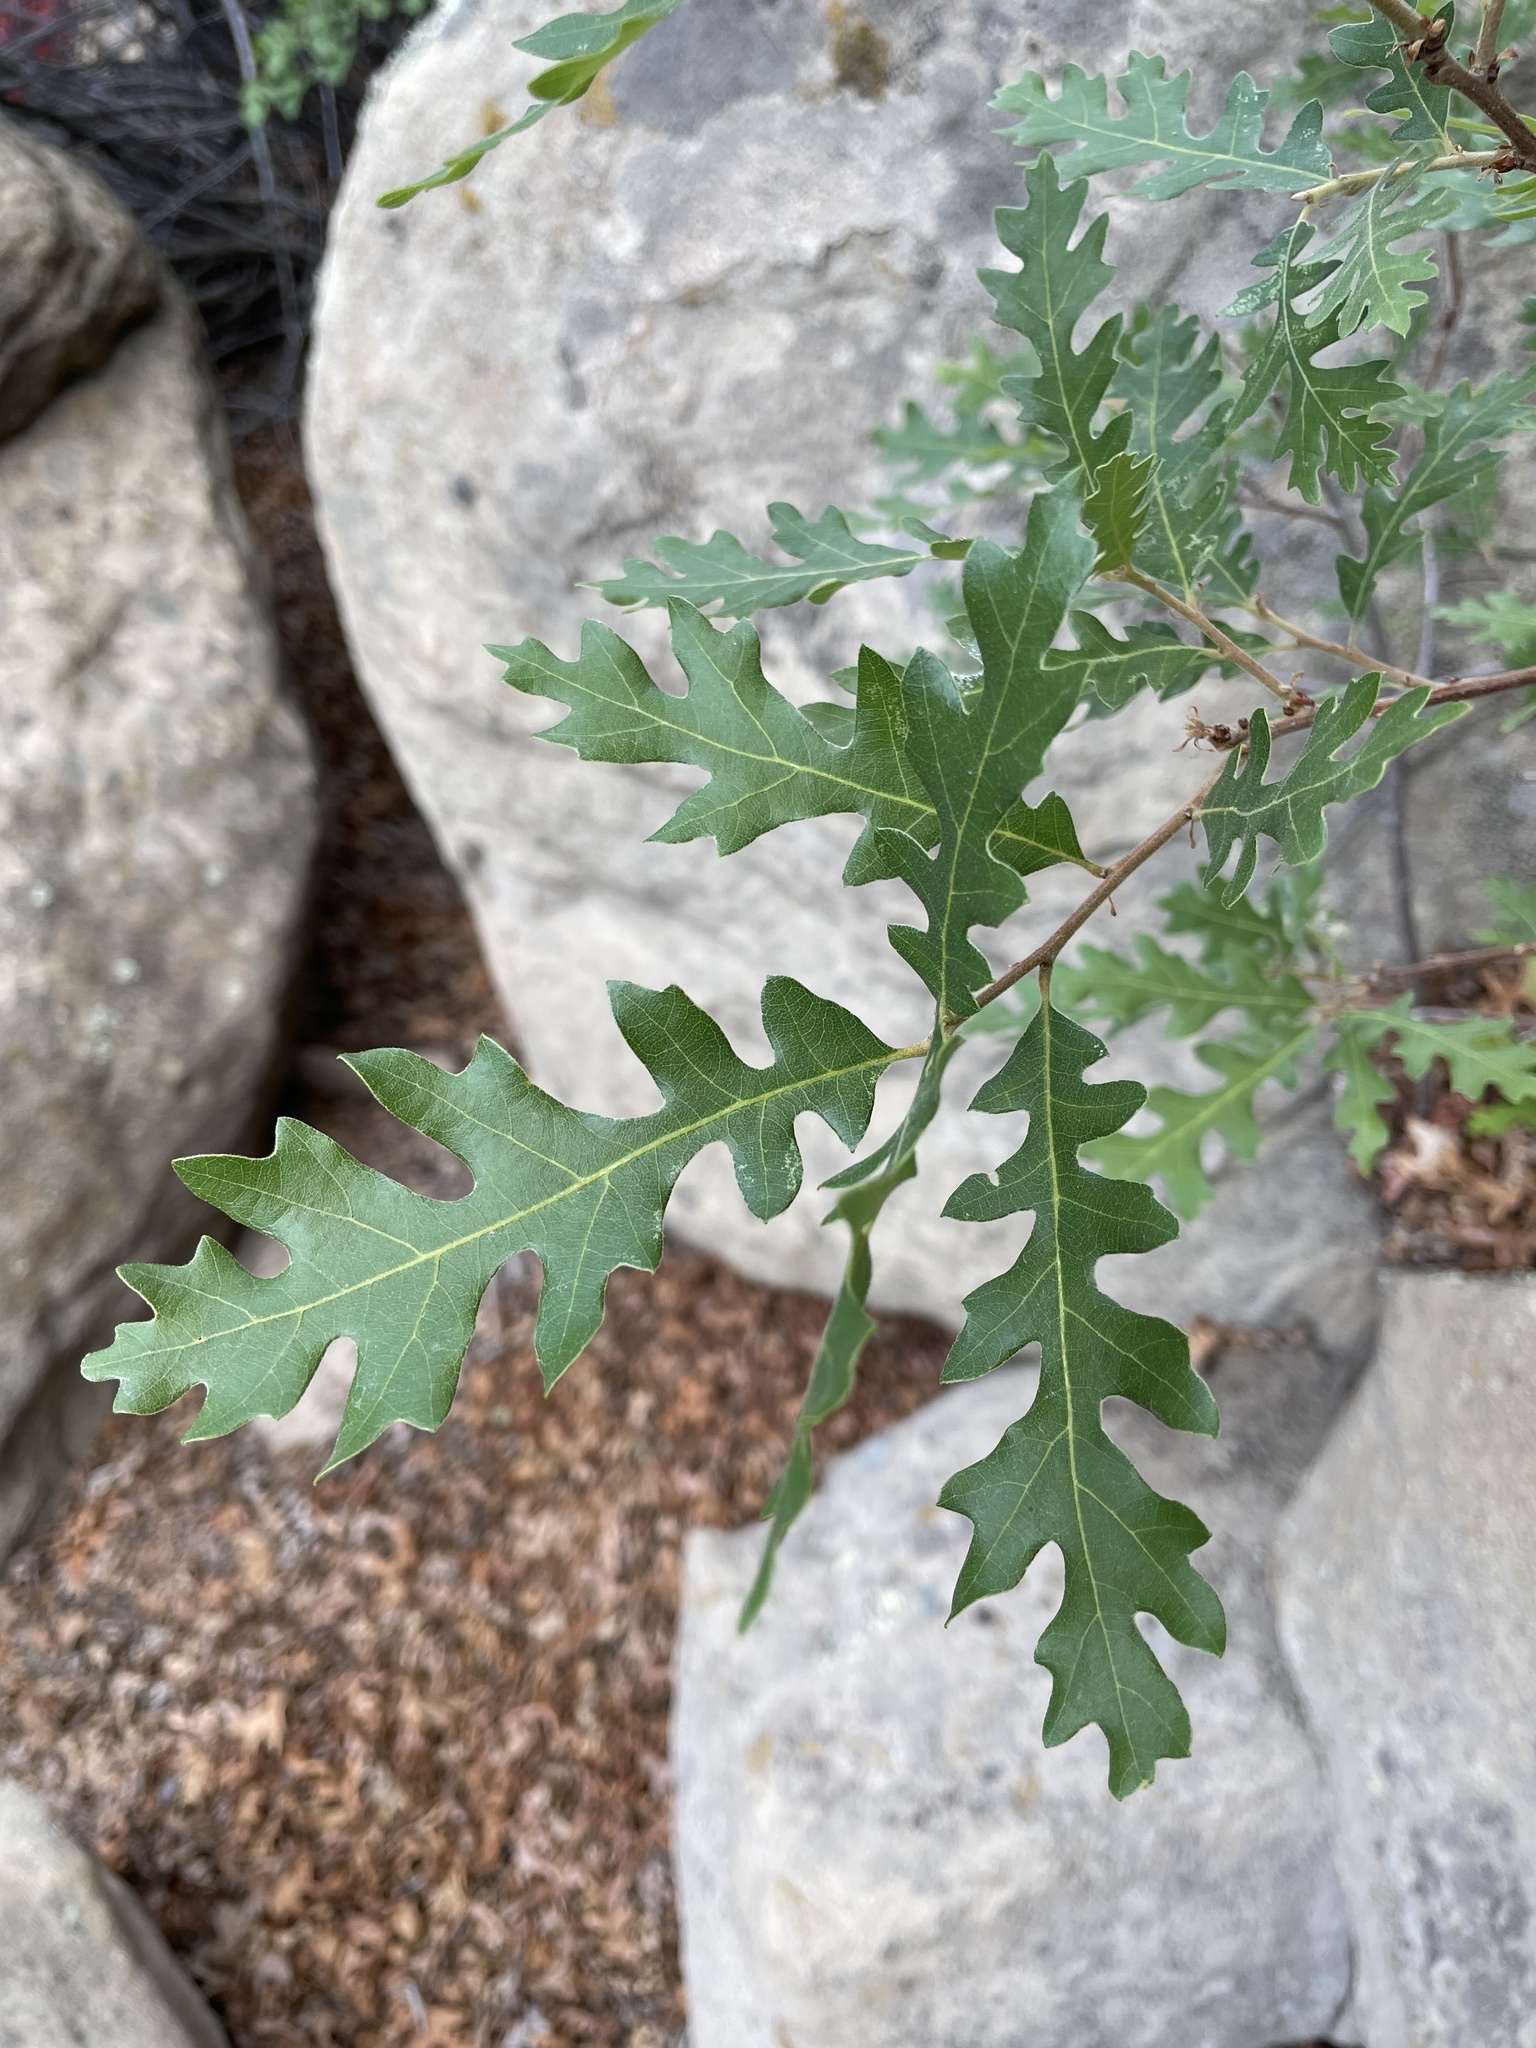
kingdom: Plantae
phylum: Tracheophyta
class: Magnoliopsida
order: Fagales
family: Fagaceae
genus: Quercus
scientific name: Quercus gambelii
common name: Gambel oak
